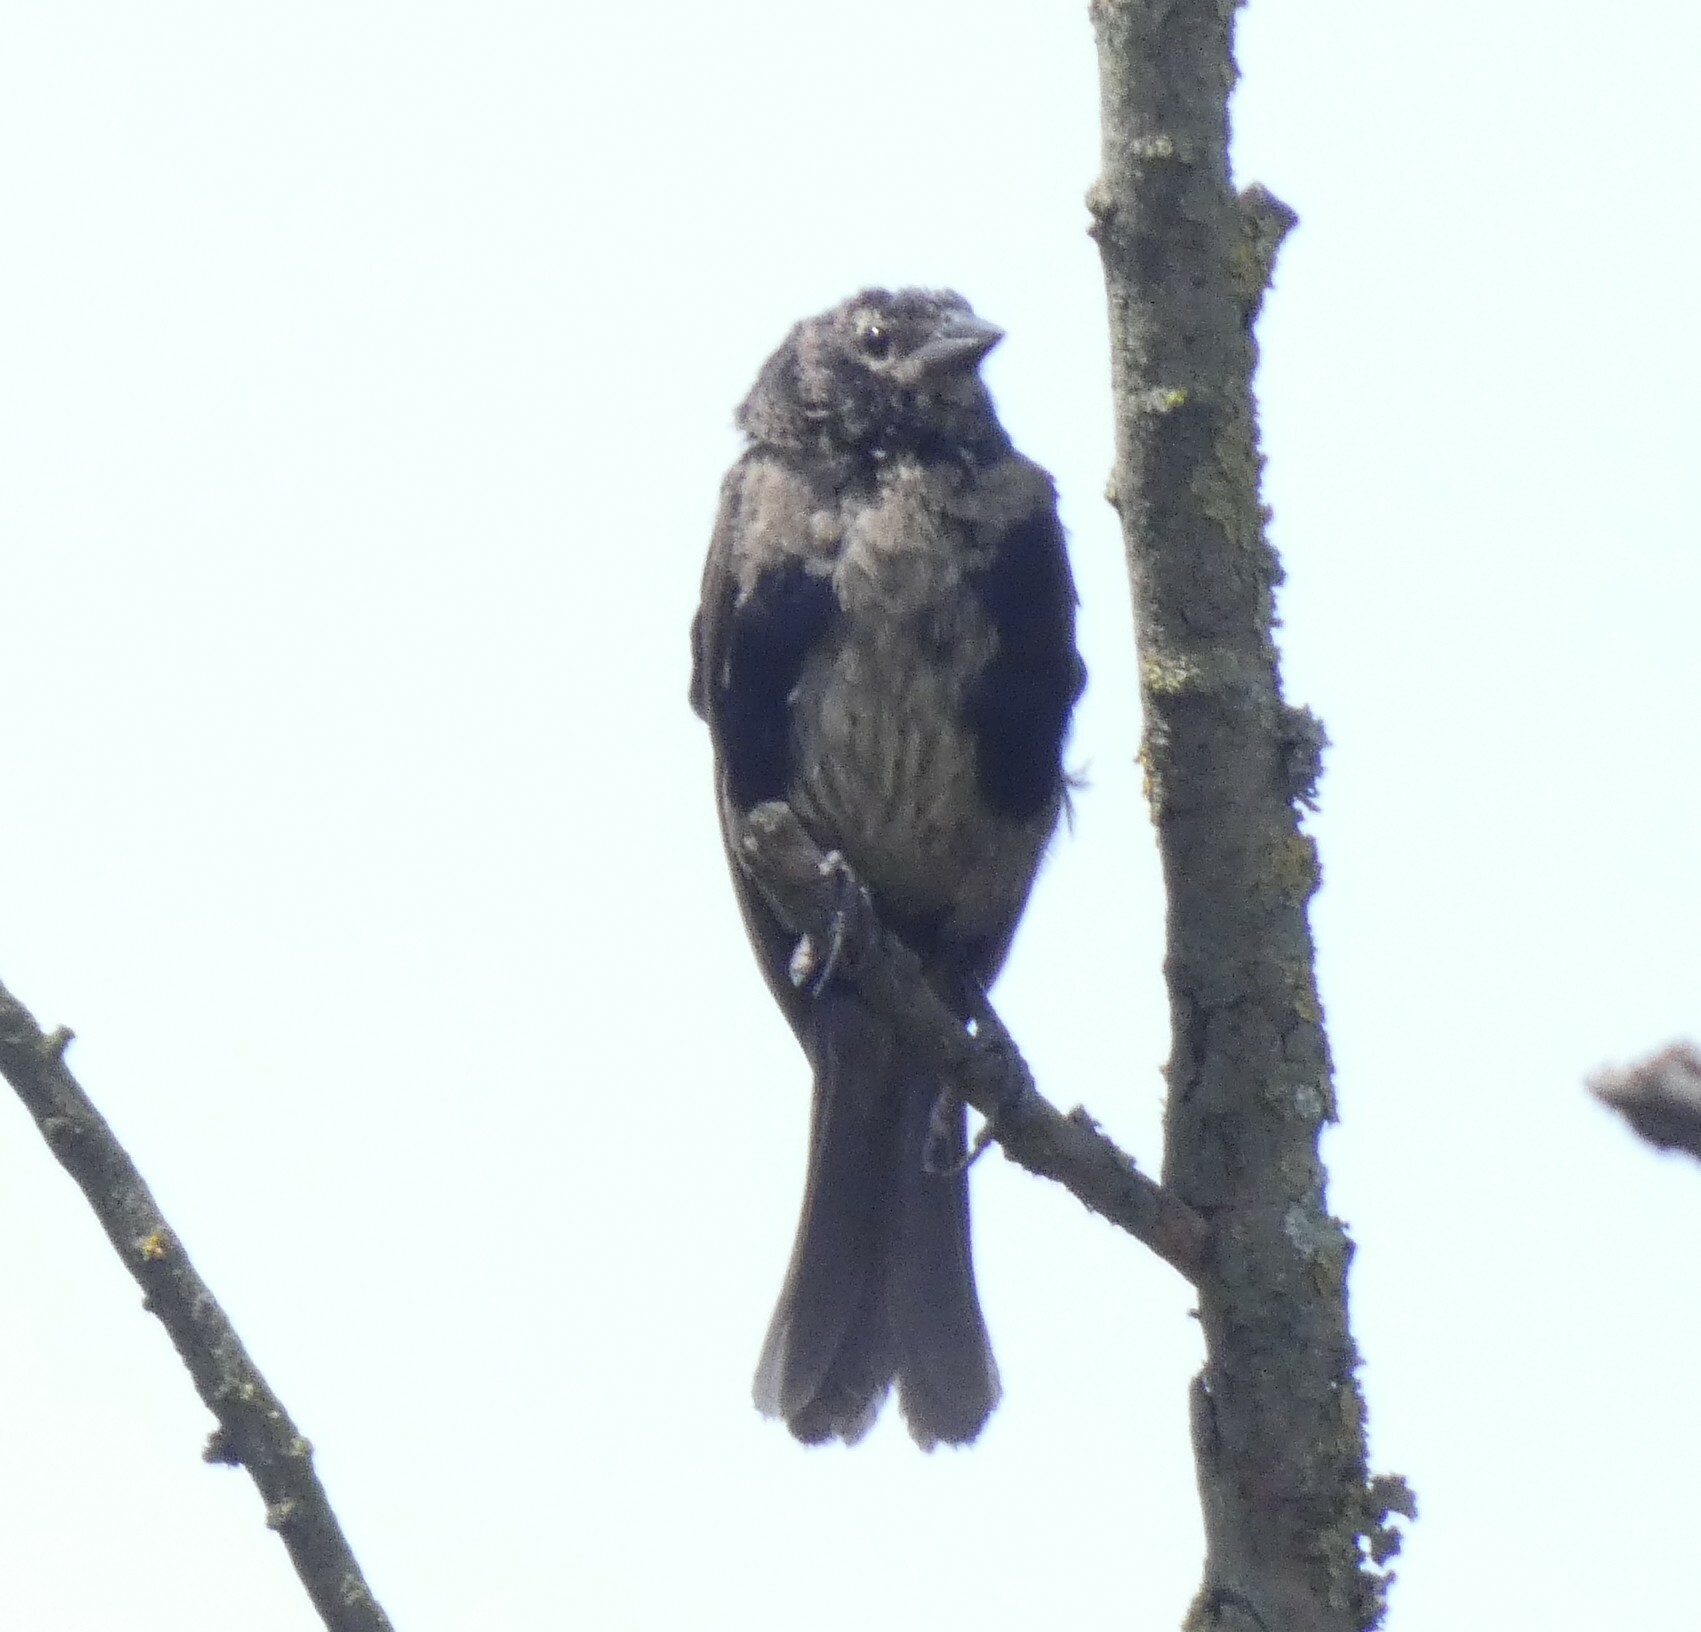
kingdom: Animalia
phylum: Chordata
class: Aves
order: Passeriformes
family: Icteridae
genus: Molothrus
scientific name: Molothrus bonariensis
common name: Shiny cowbird
